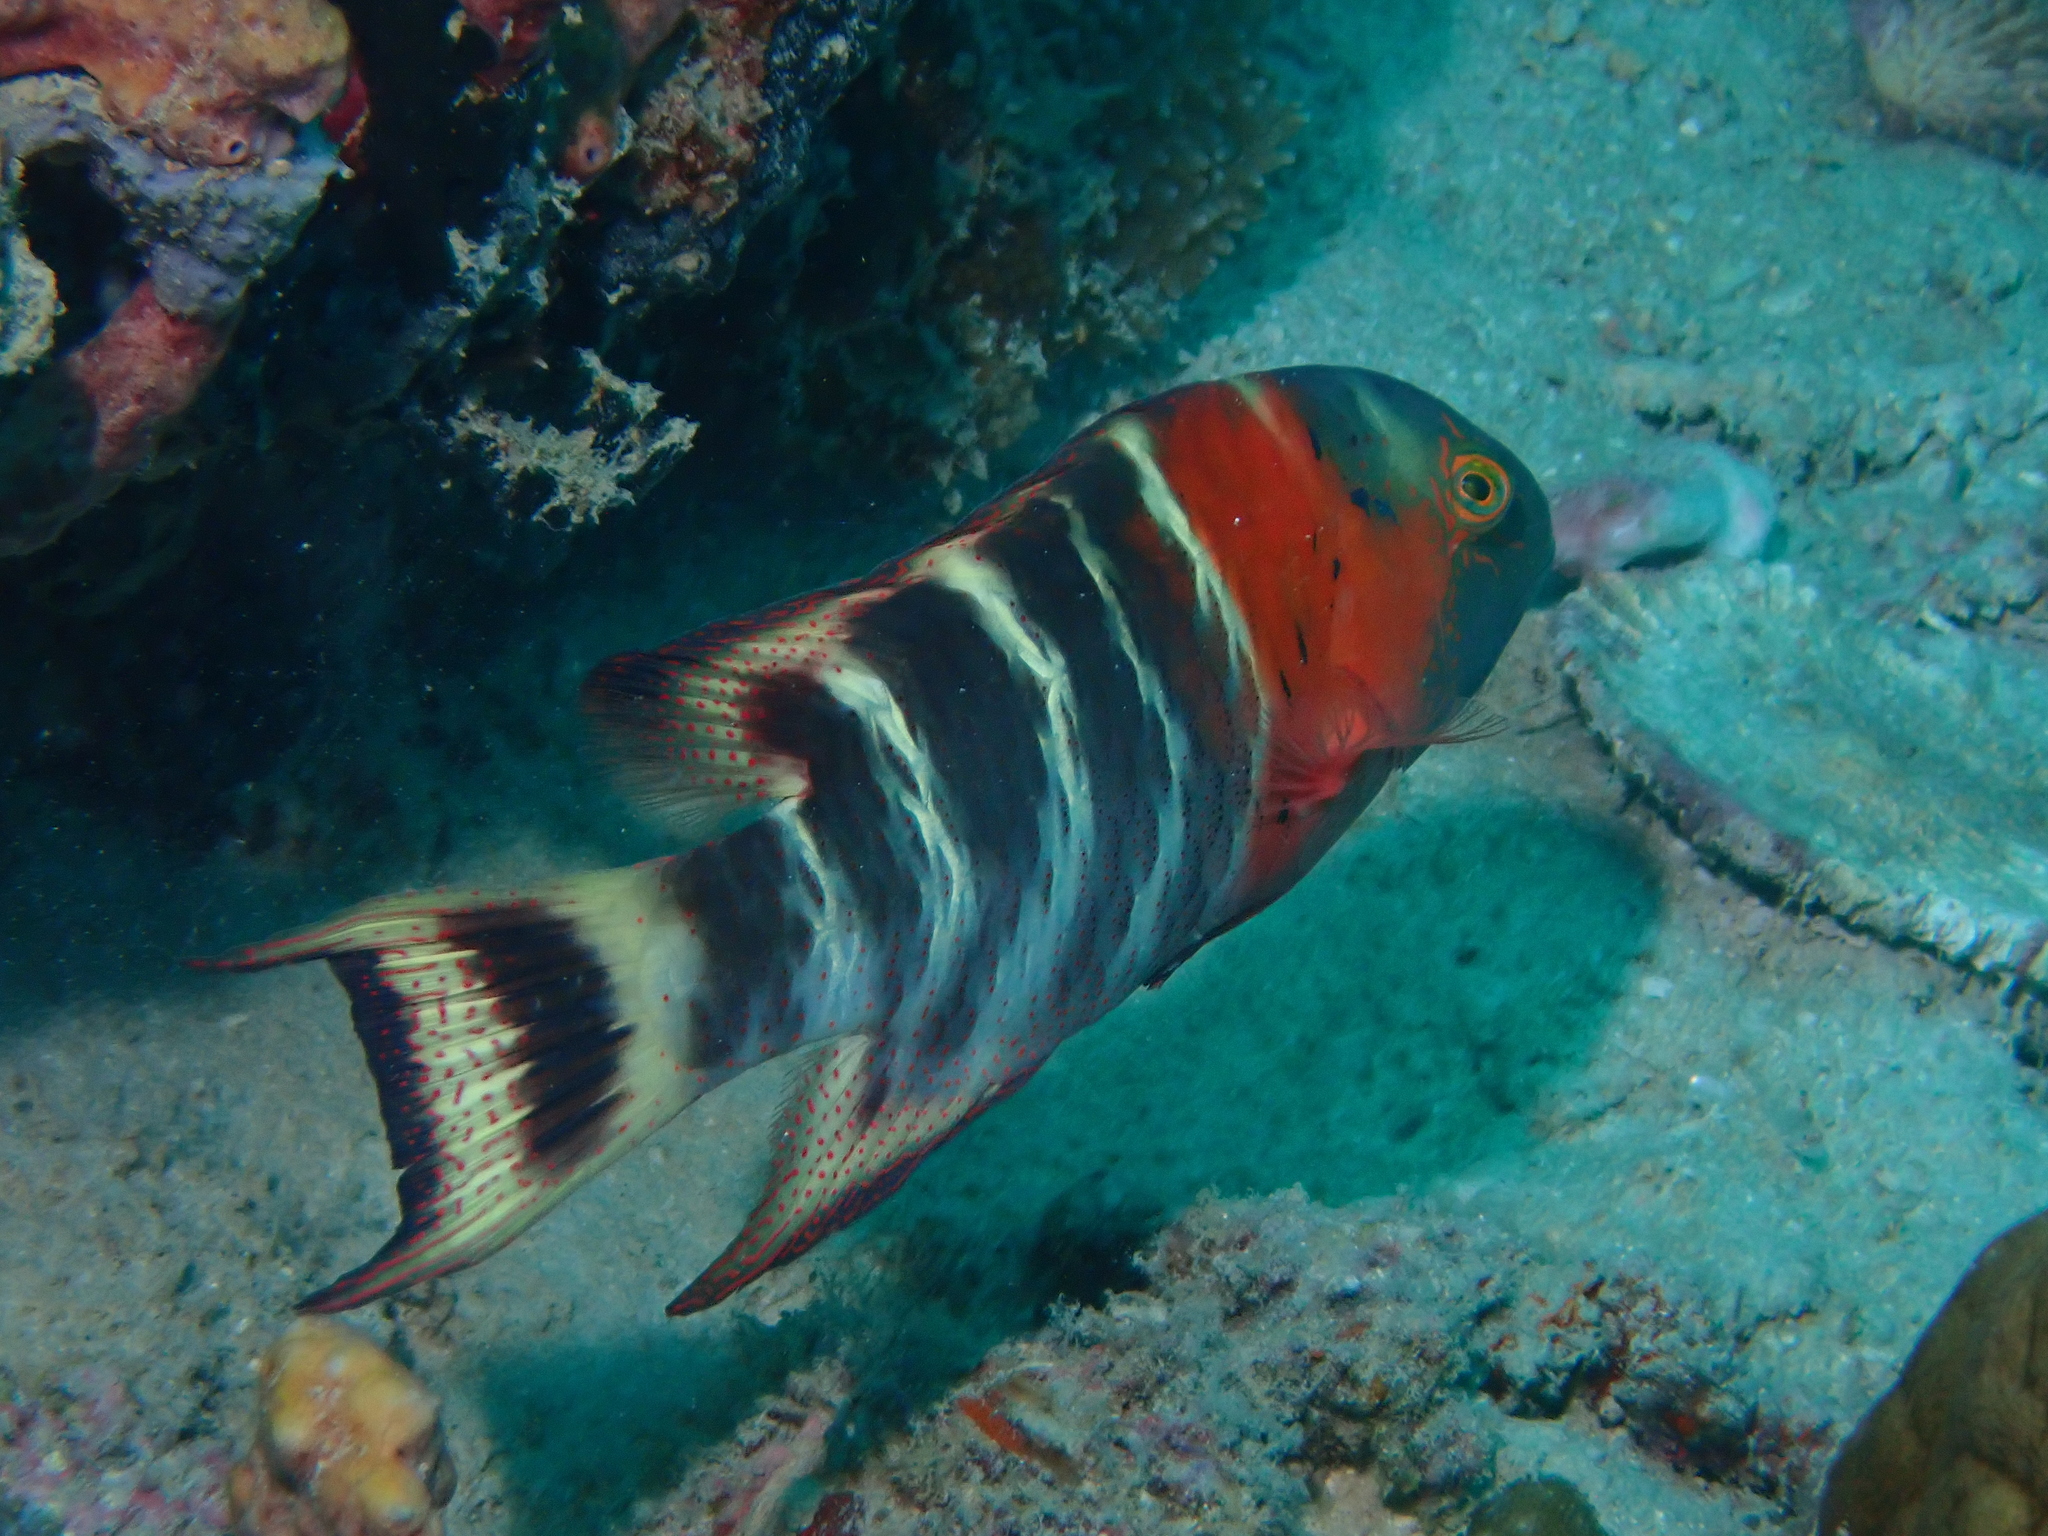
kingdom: Animalia
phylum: Chordata
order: Perciformes
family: Labridae
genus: Cheilinus
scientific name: Cheilinus fasciatus
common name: Red-breasted wrasse
